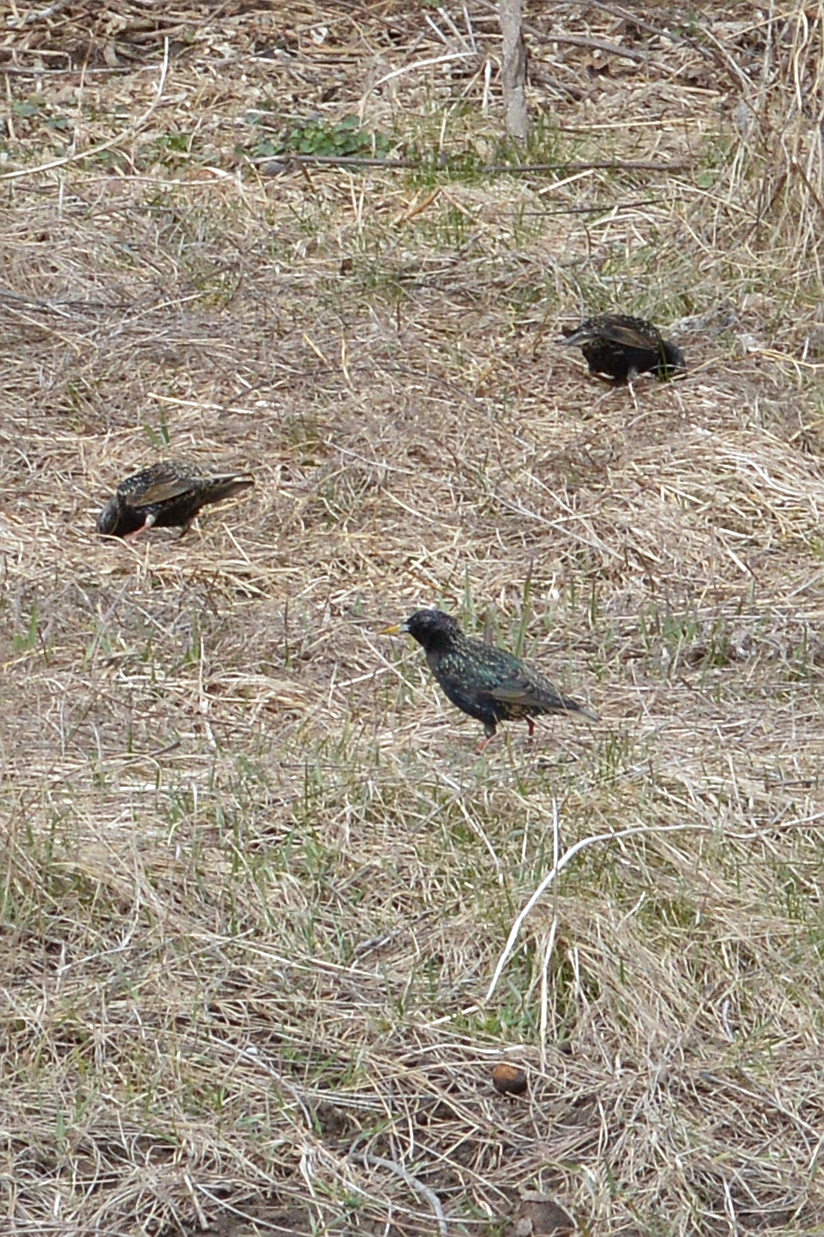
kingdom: Animalia
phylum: Chordata
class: Aves
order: Passeriformes
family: Sturnidae
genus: Sturnus
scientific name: Sturnus vulgaris
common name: Common starling
